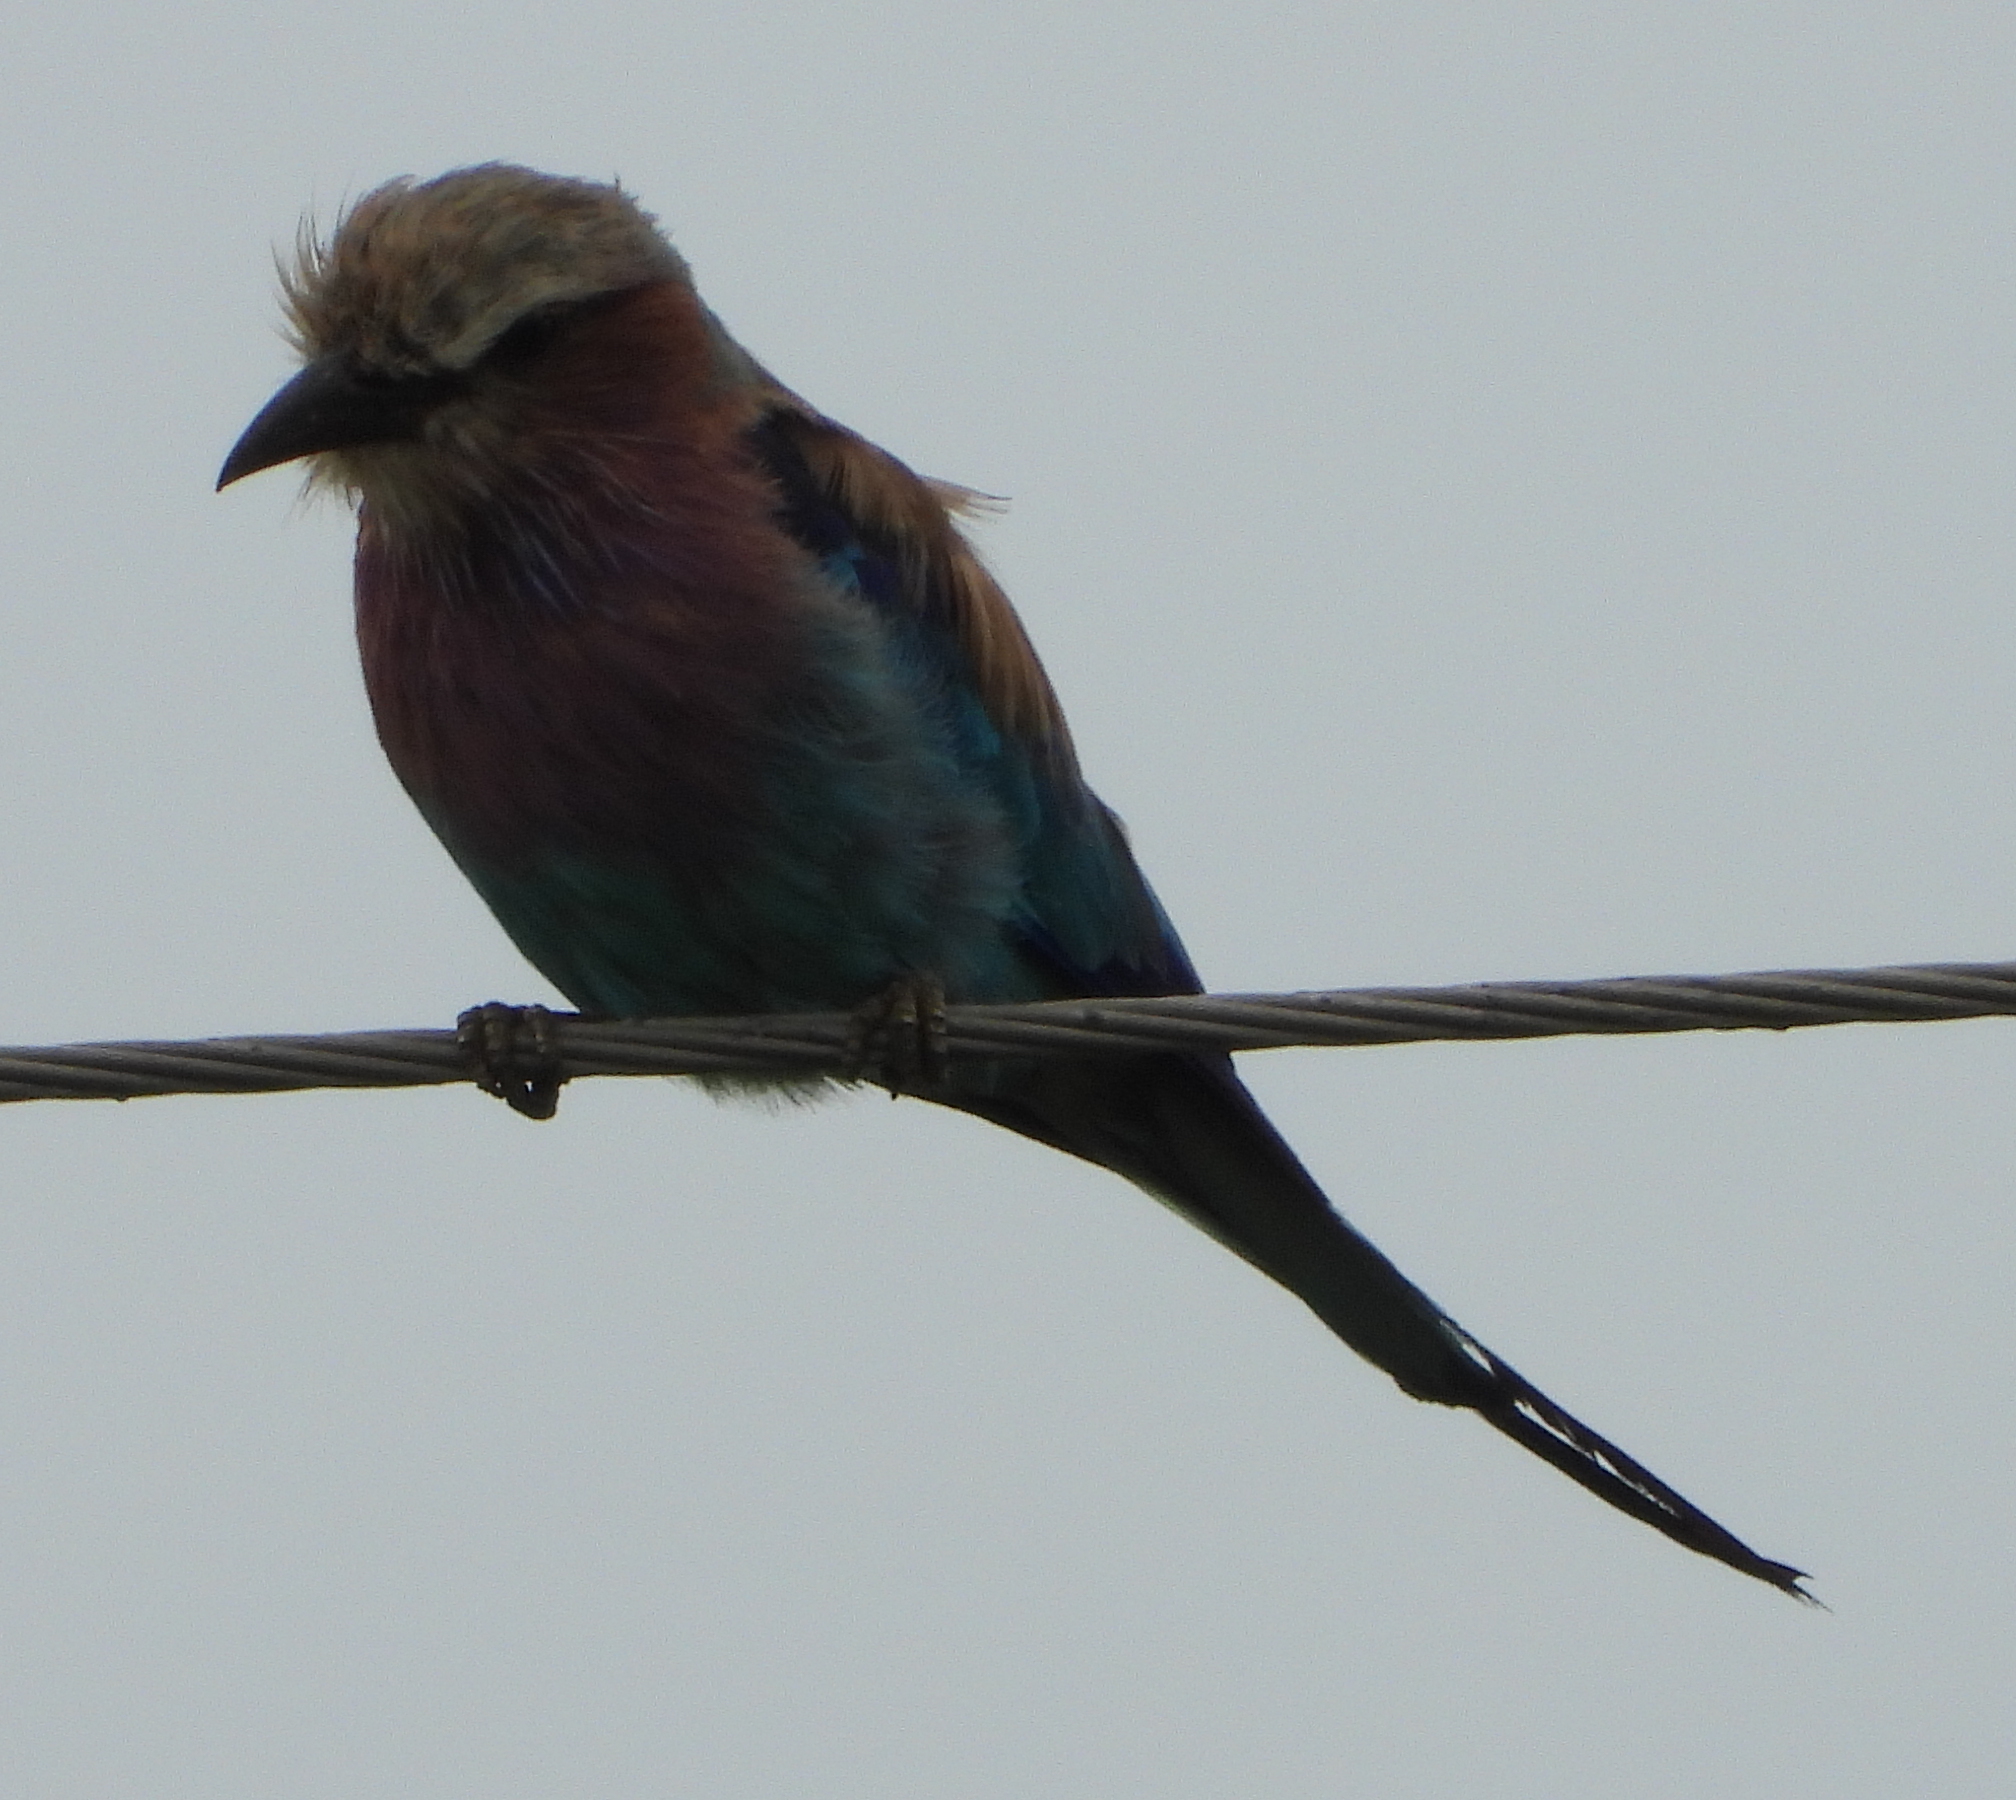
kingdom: Animalia
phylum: Chordata
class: Aves
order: Coraciiformes
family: Coraciidae
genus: Coracias
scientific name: Coracias caudatus
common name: Lilac-breasted roller
